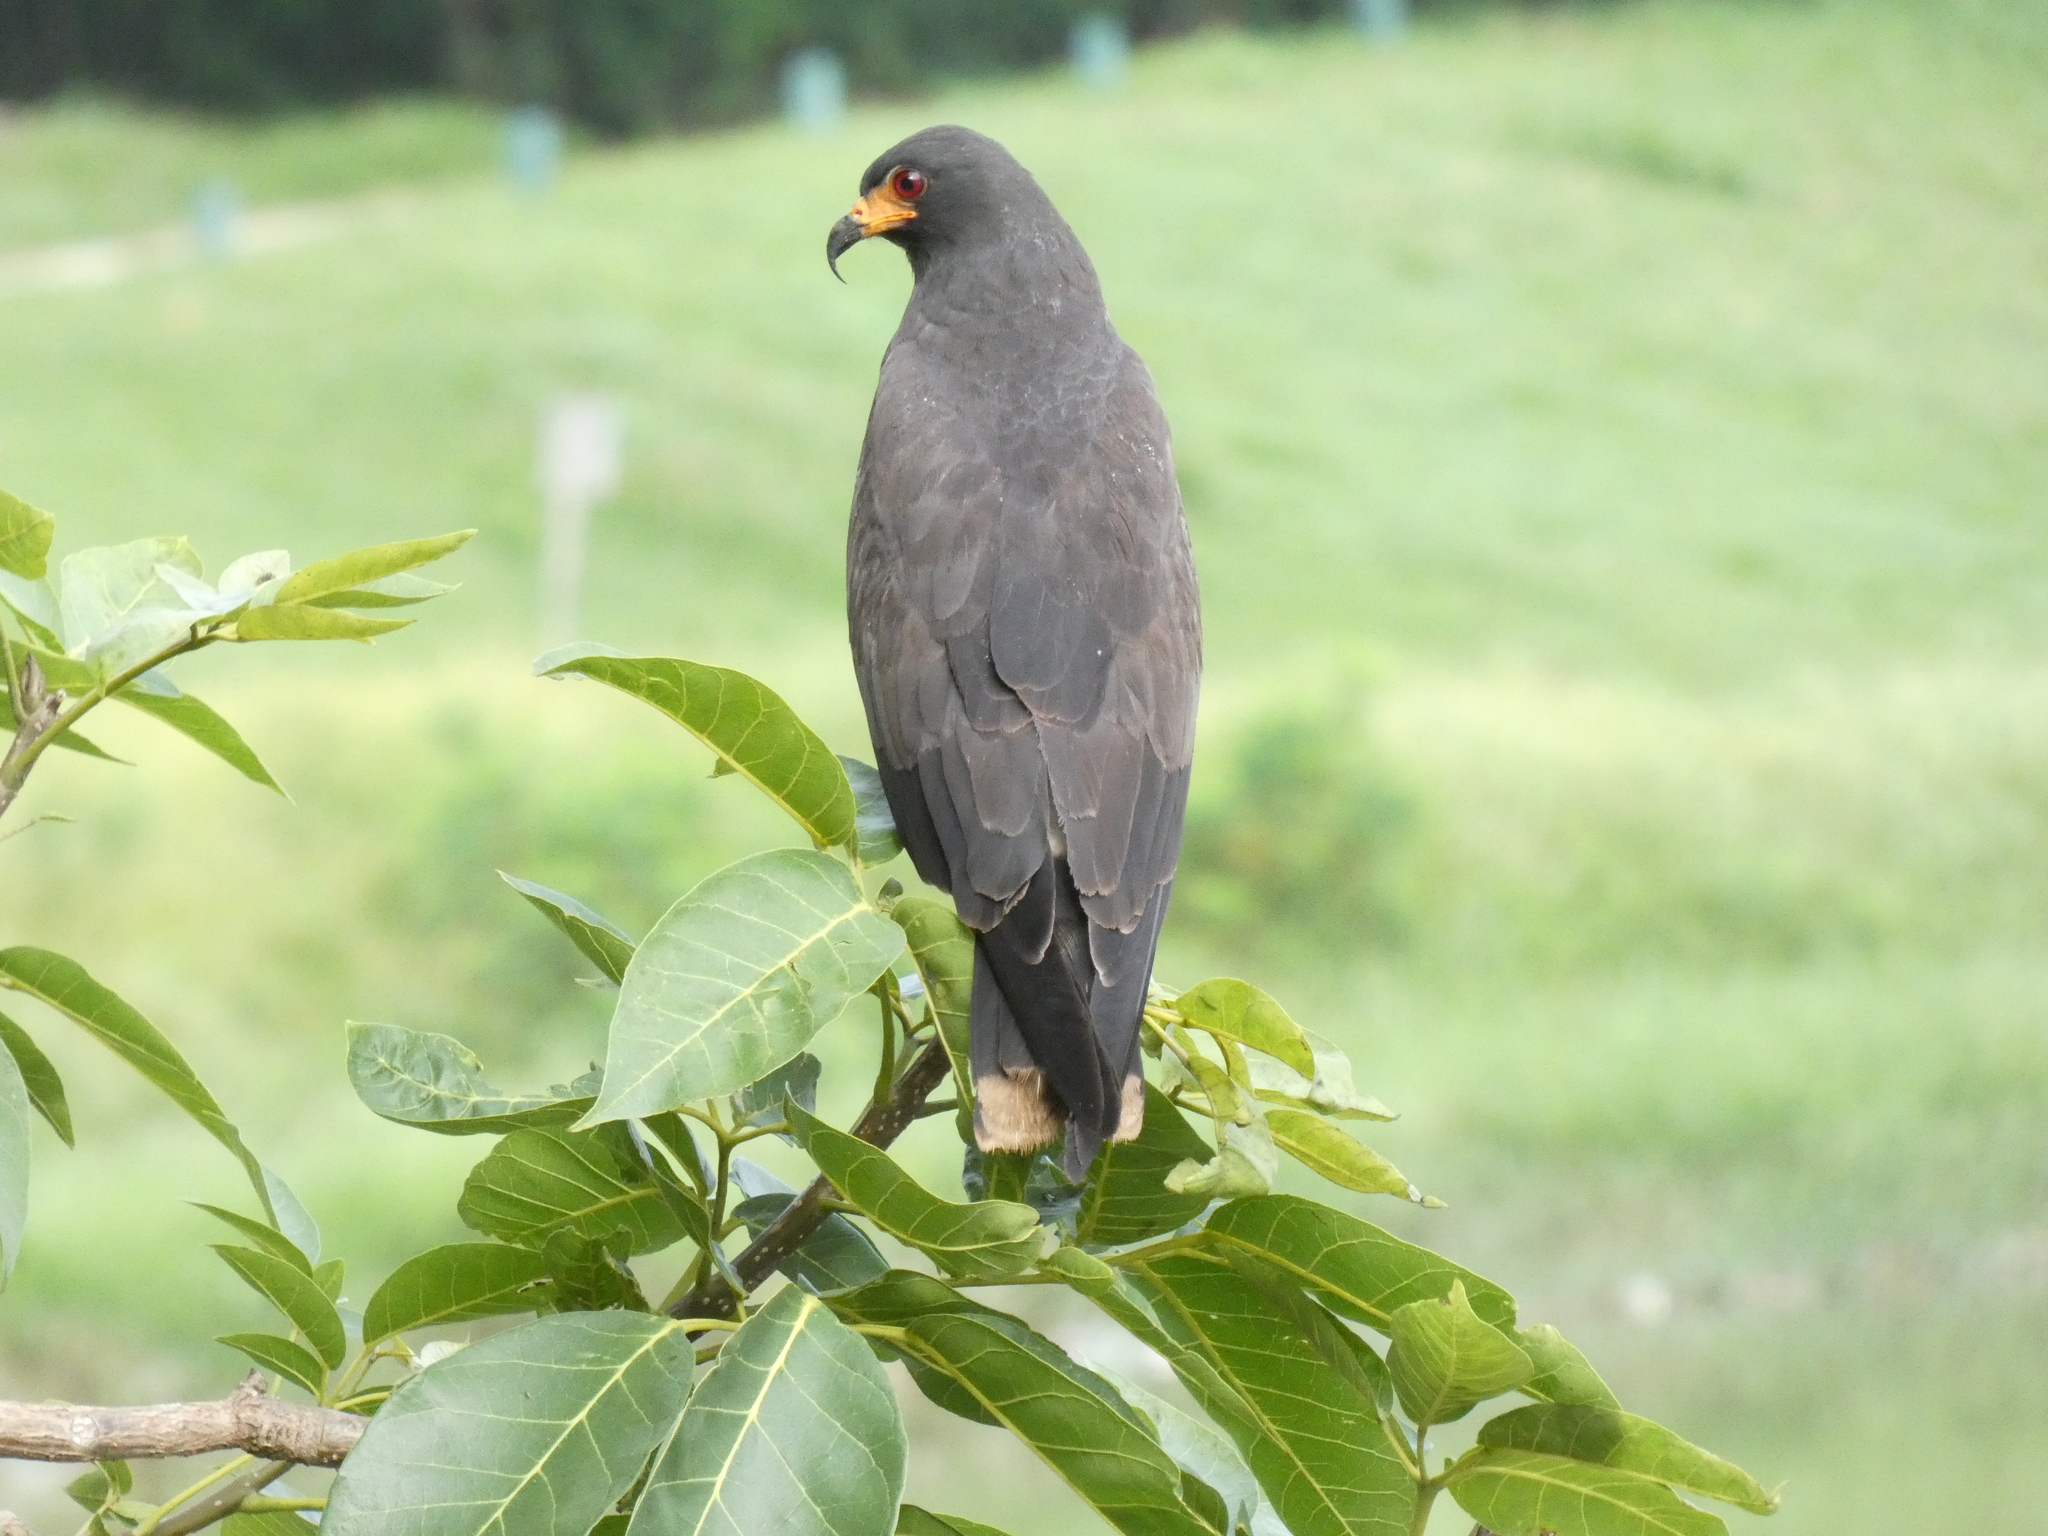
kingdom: Animalia
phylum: Chordata
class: Aves
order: Accipitriformes
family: Accipitridae
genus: Rostrhamus
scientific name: Rostrhamus sociabilis
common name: Snail kite
